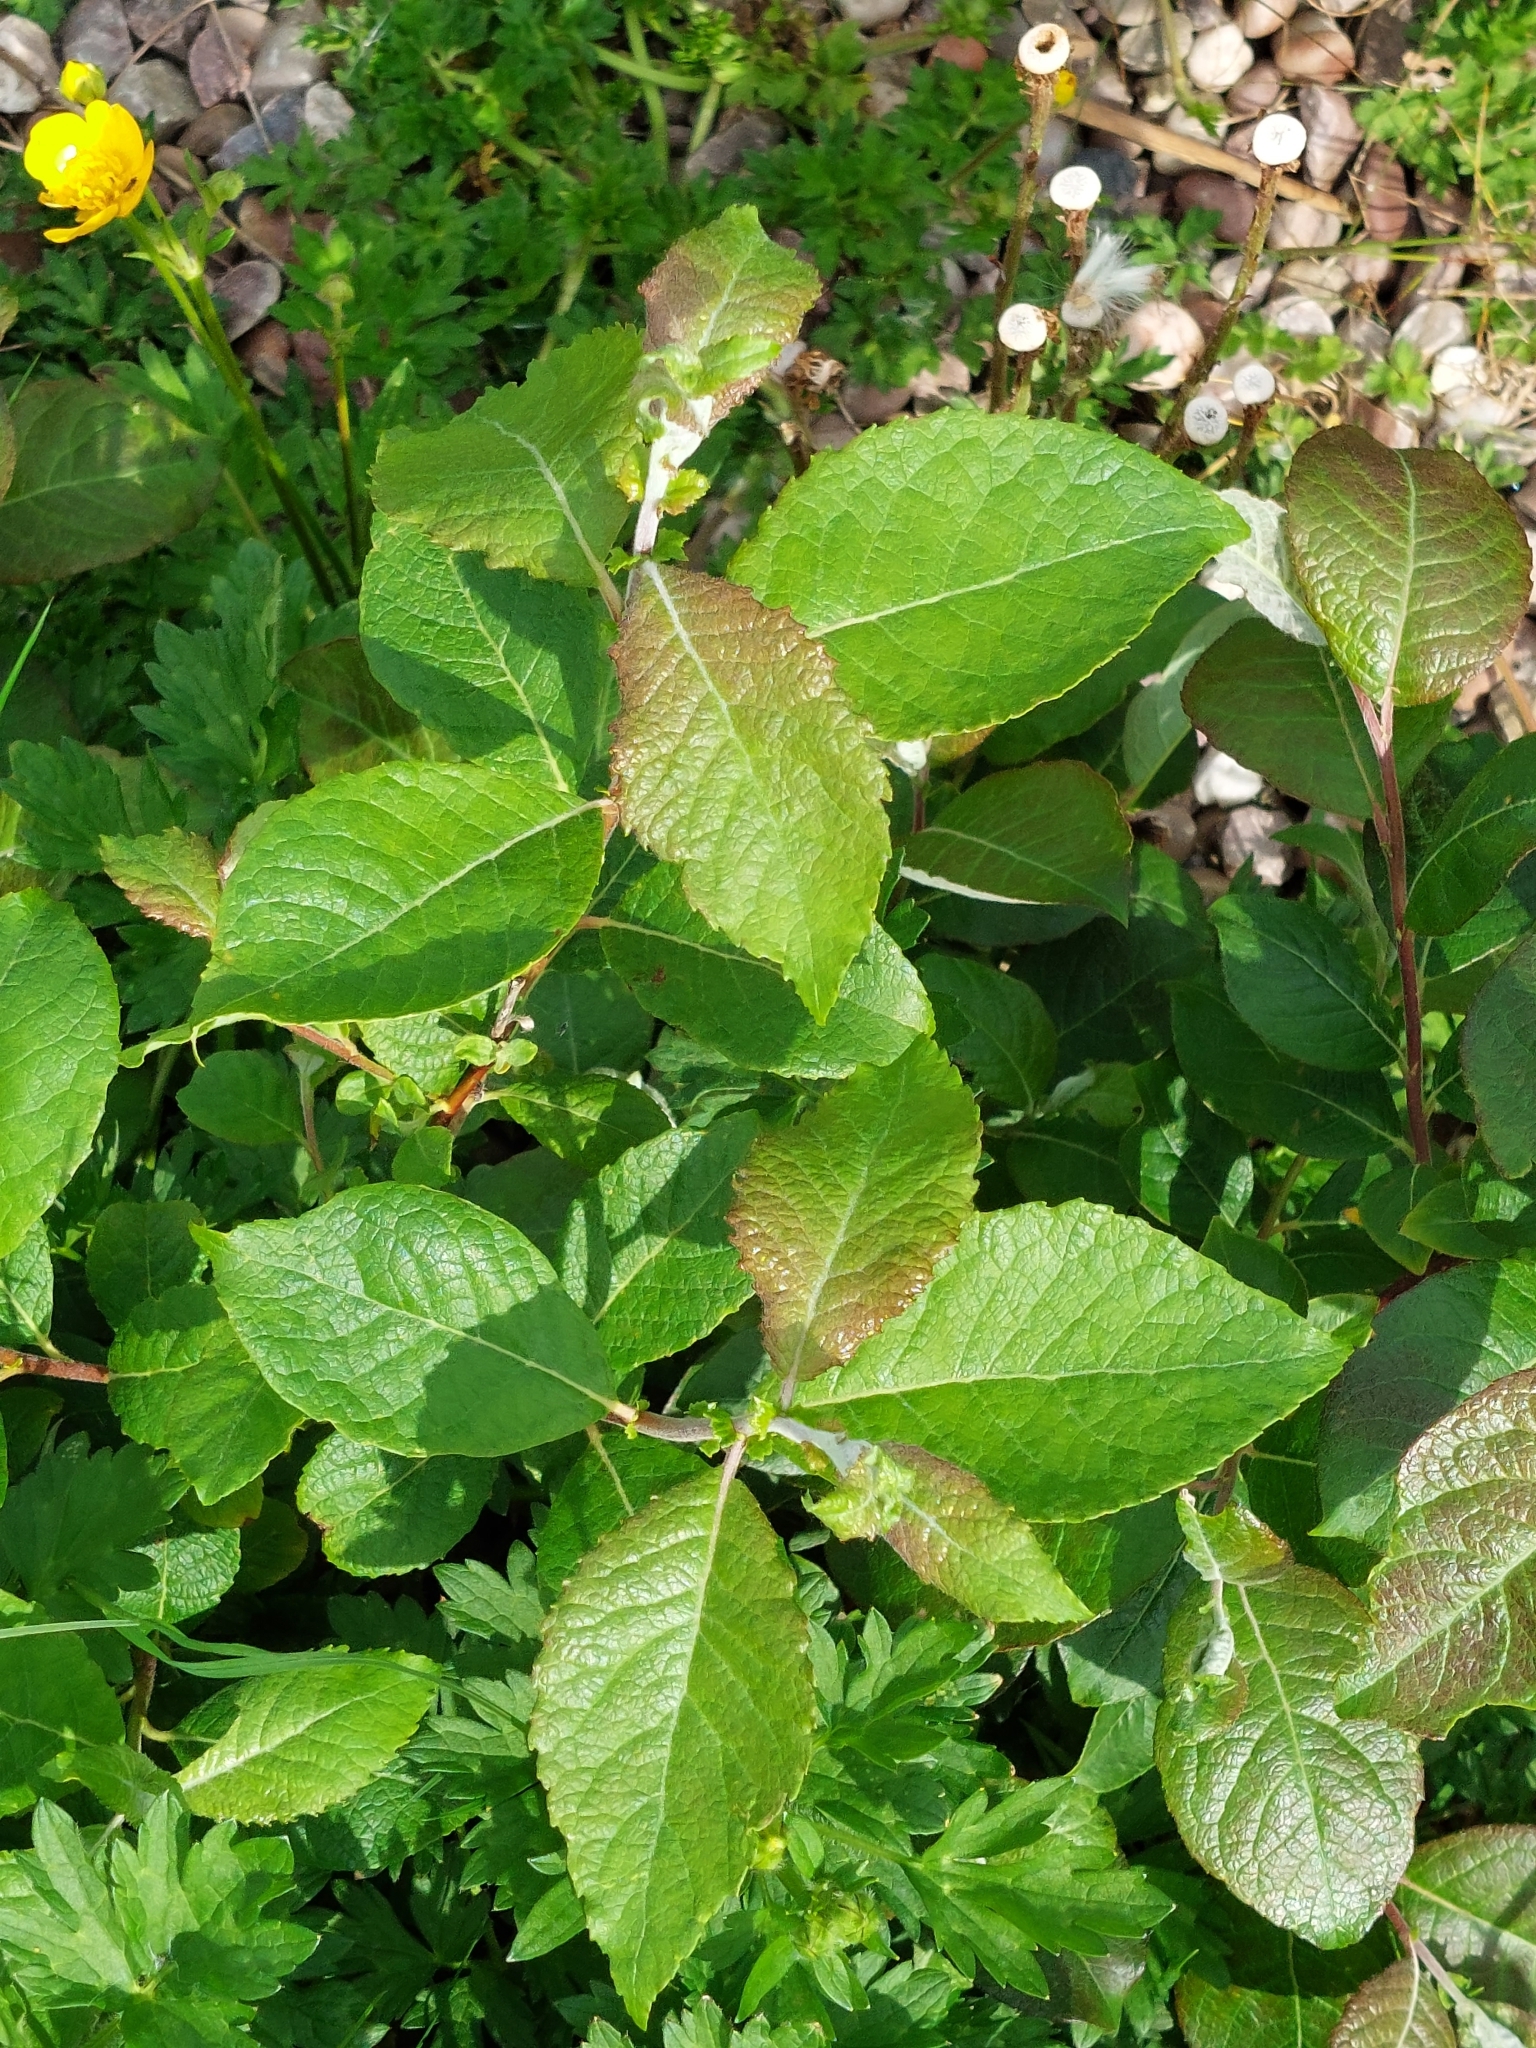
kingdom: Plantae
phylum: Tracheophyta
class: Magnoliopsida
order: Malpighiales
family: Salicaceae
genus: Salix
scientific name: Salix caprea
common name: Goat willow
